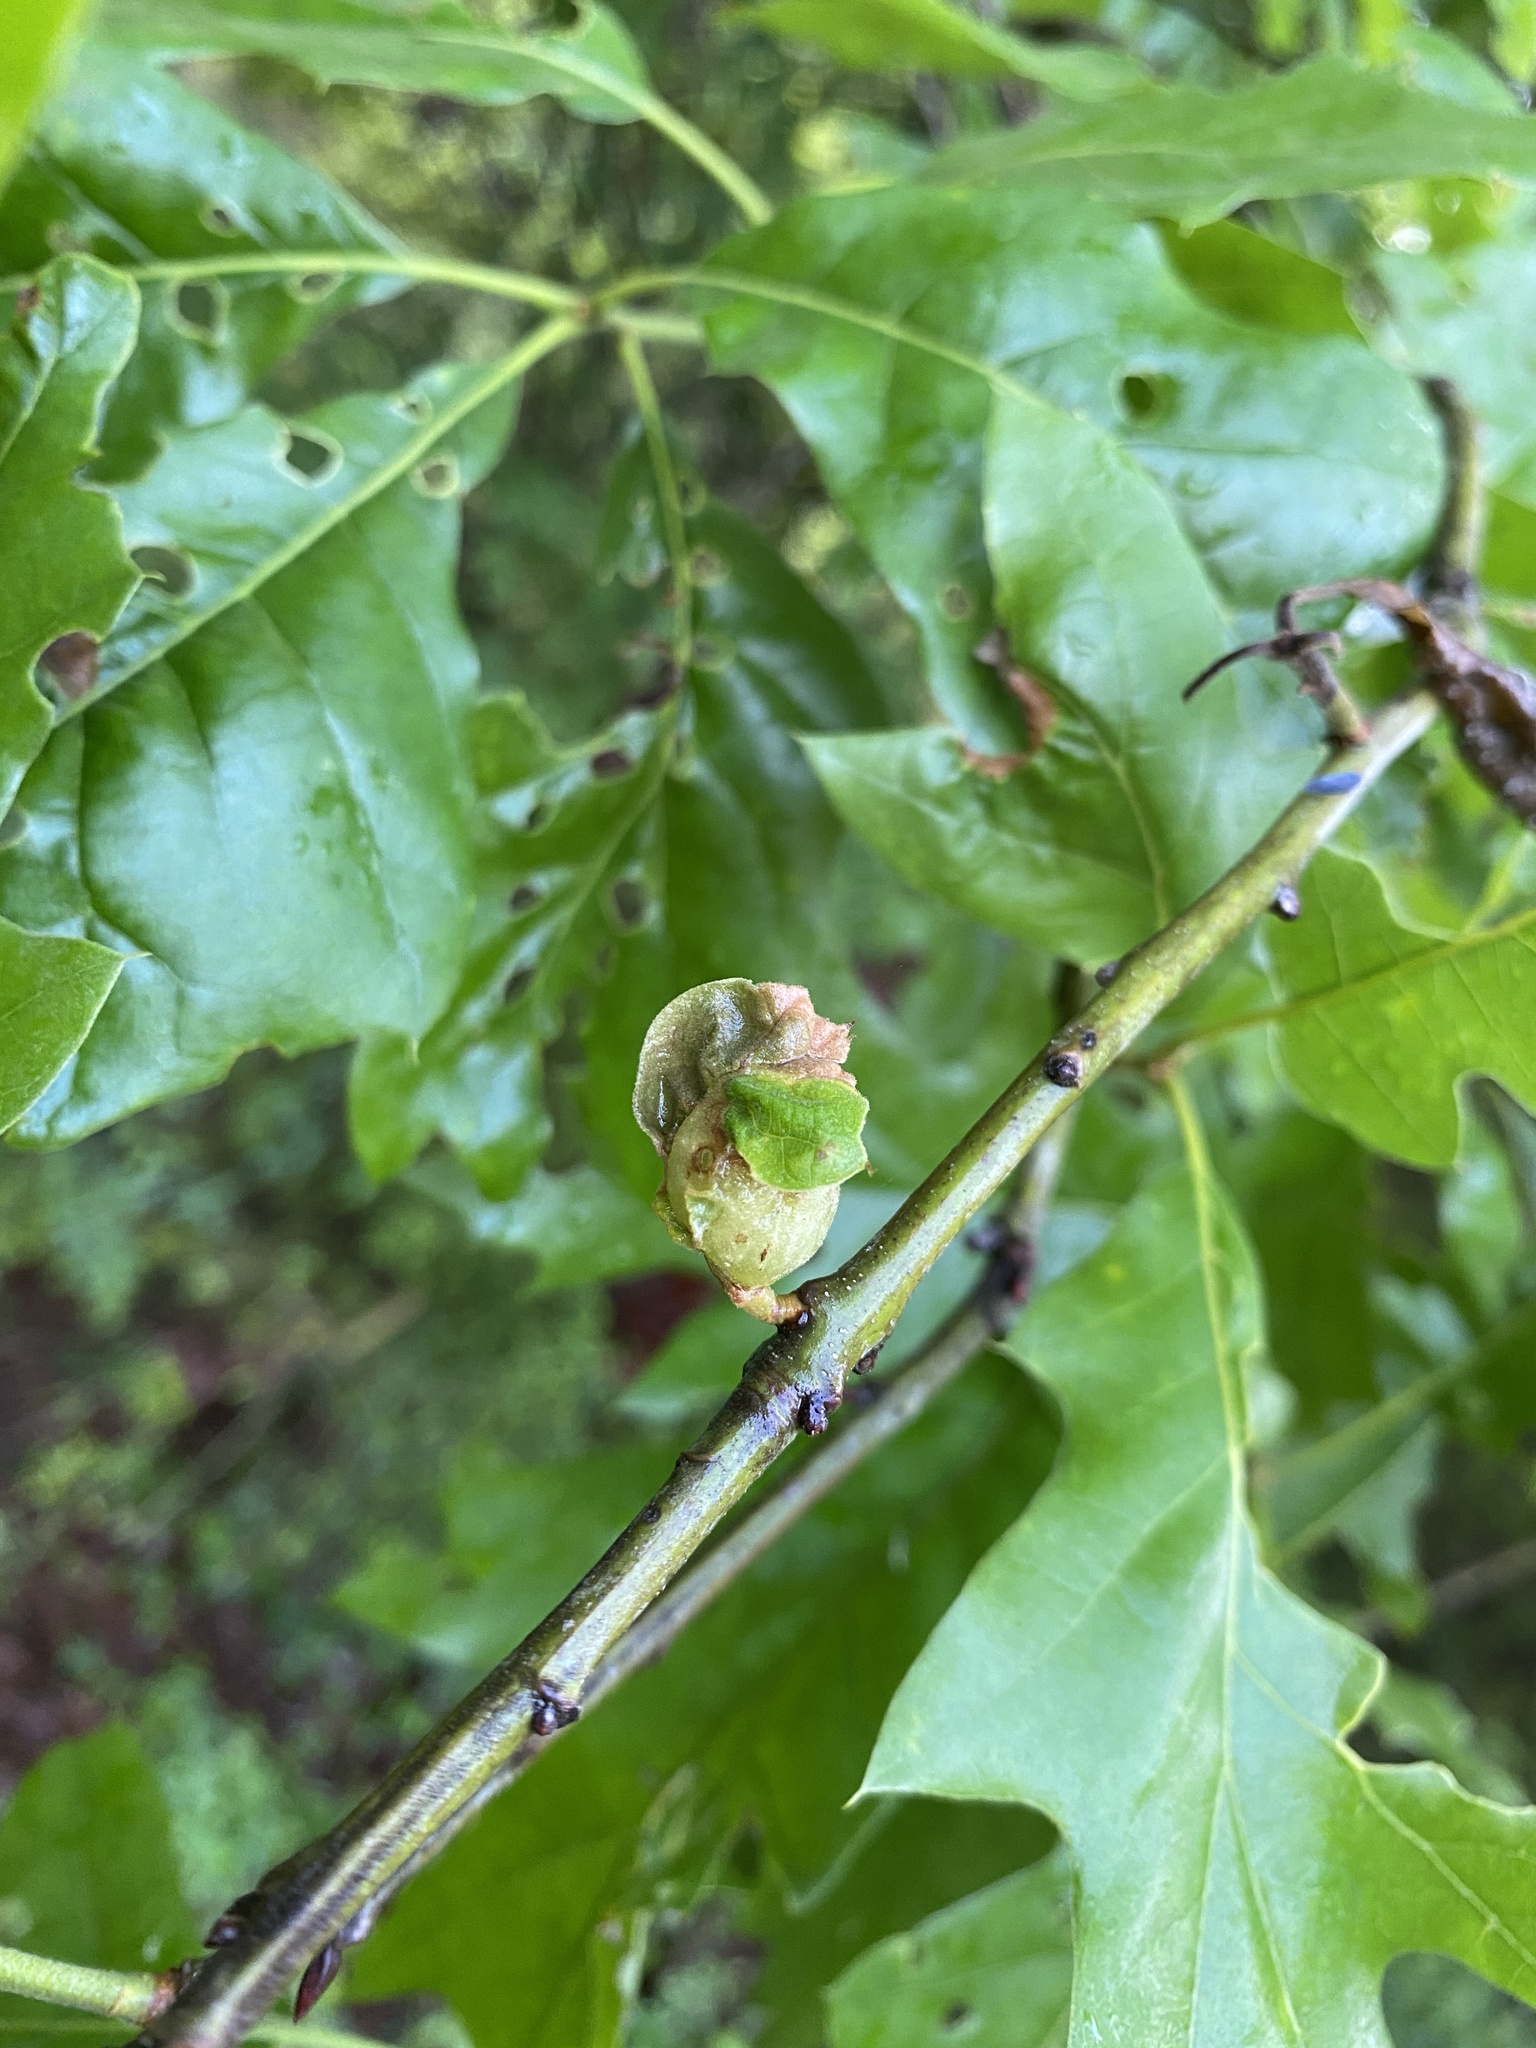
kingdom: Animalia
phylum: Arthropoda
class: Insecta
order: Hymenoptera
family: Cynipidae
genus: Dryocosmus
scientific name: Dryocosmus quercuspalustris
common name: Succulent oak gall wasp
